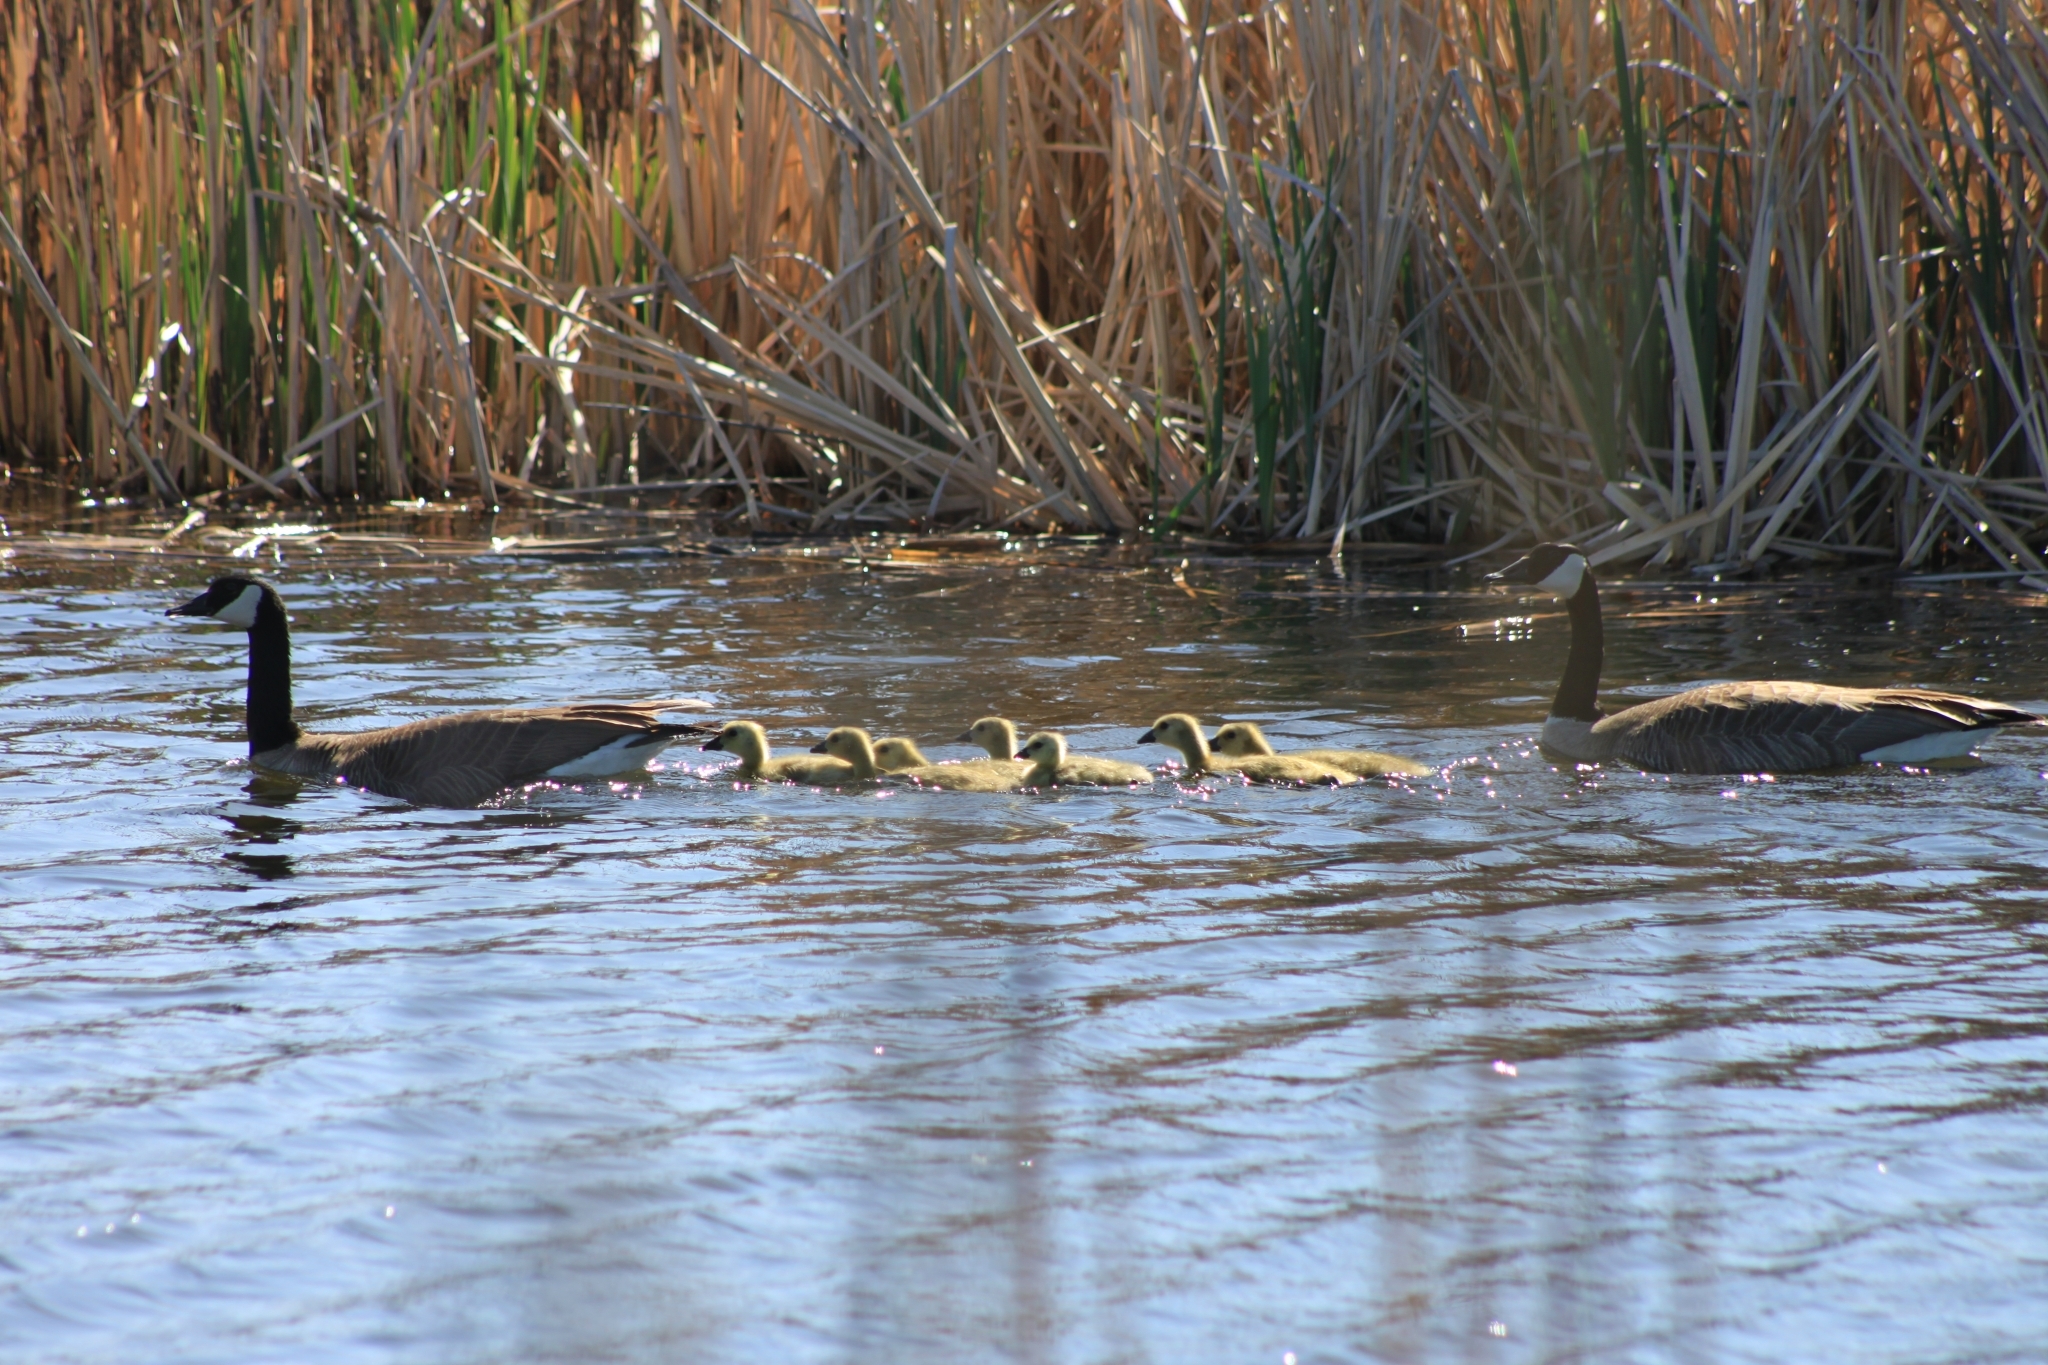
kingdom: Animalia
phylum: Chordata
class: Aves
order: Anseriformes
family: Anatidae
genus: Branta
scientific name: Branta canadensis
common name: Canada goose
